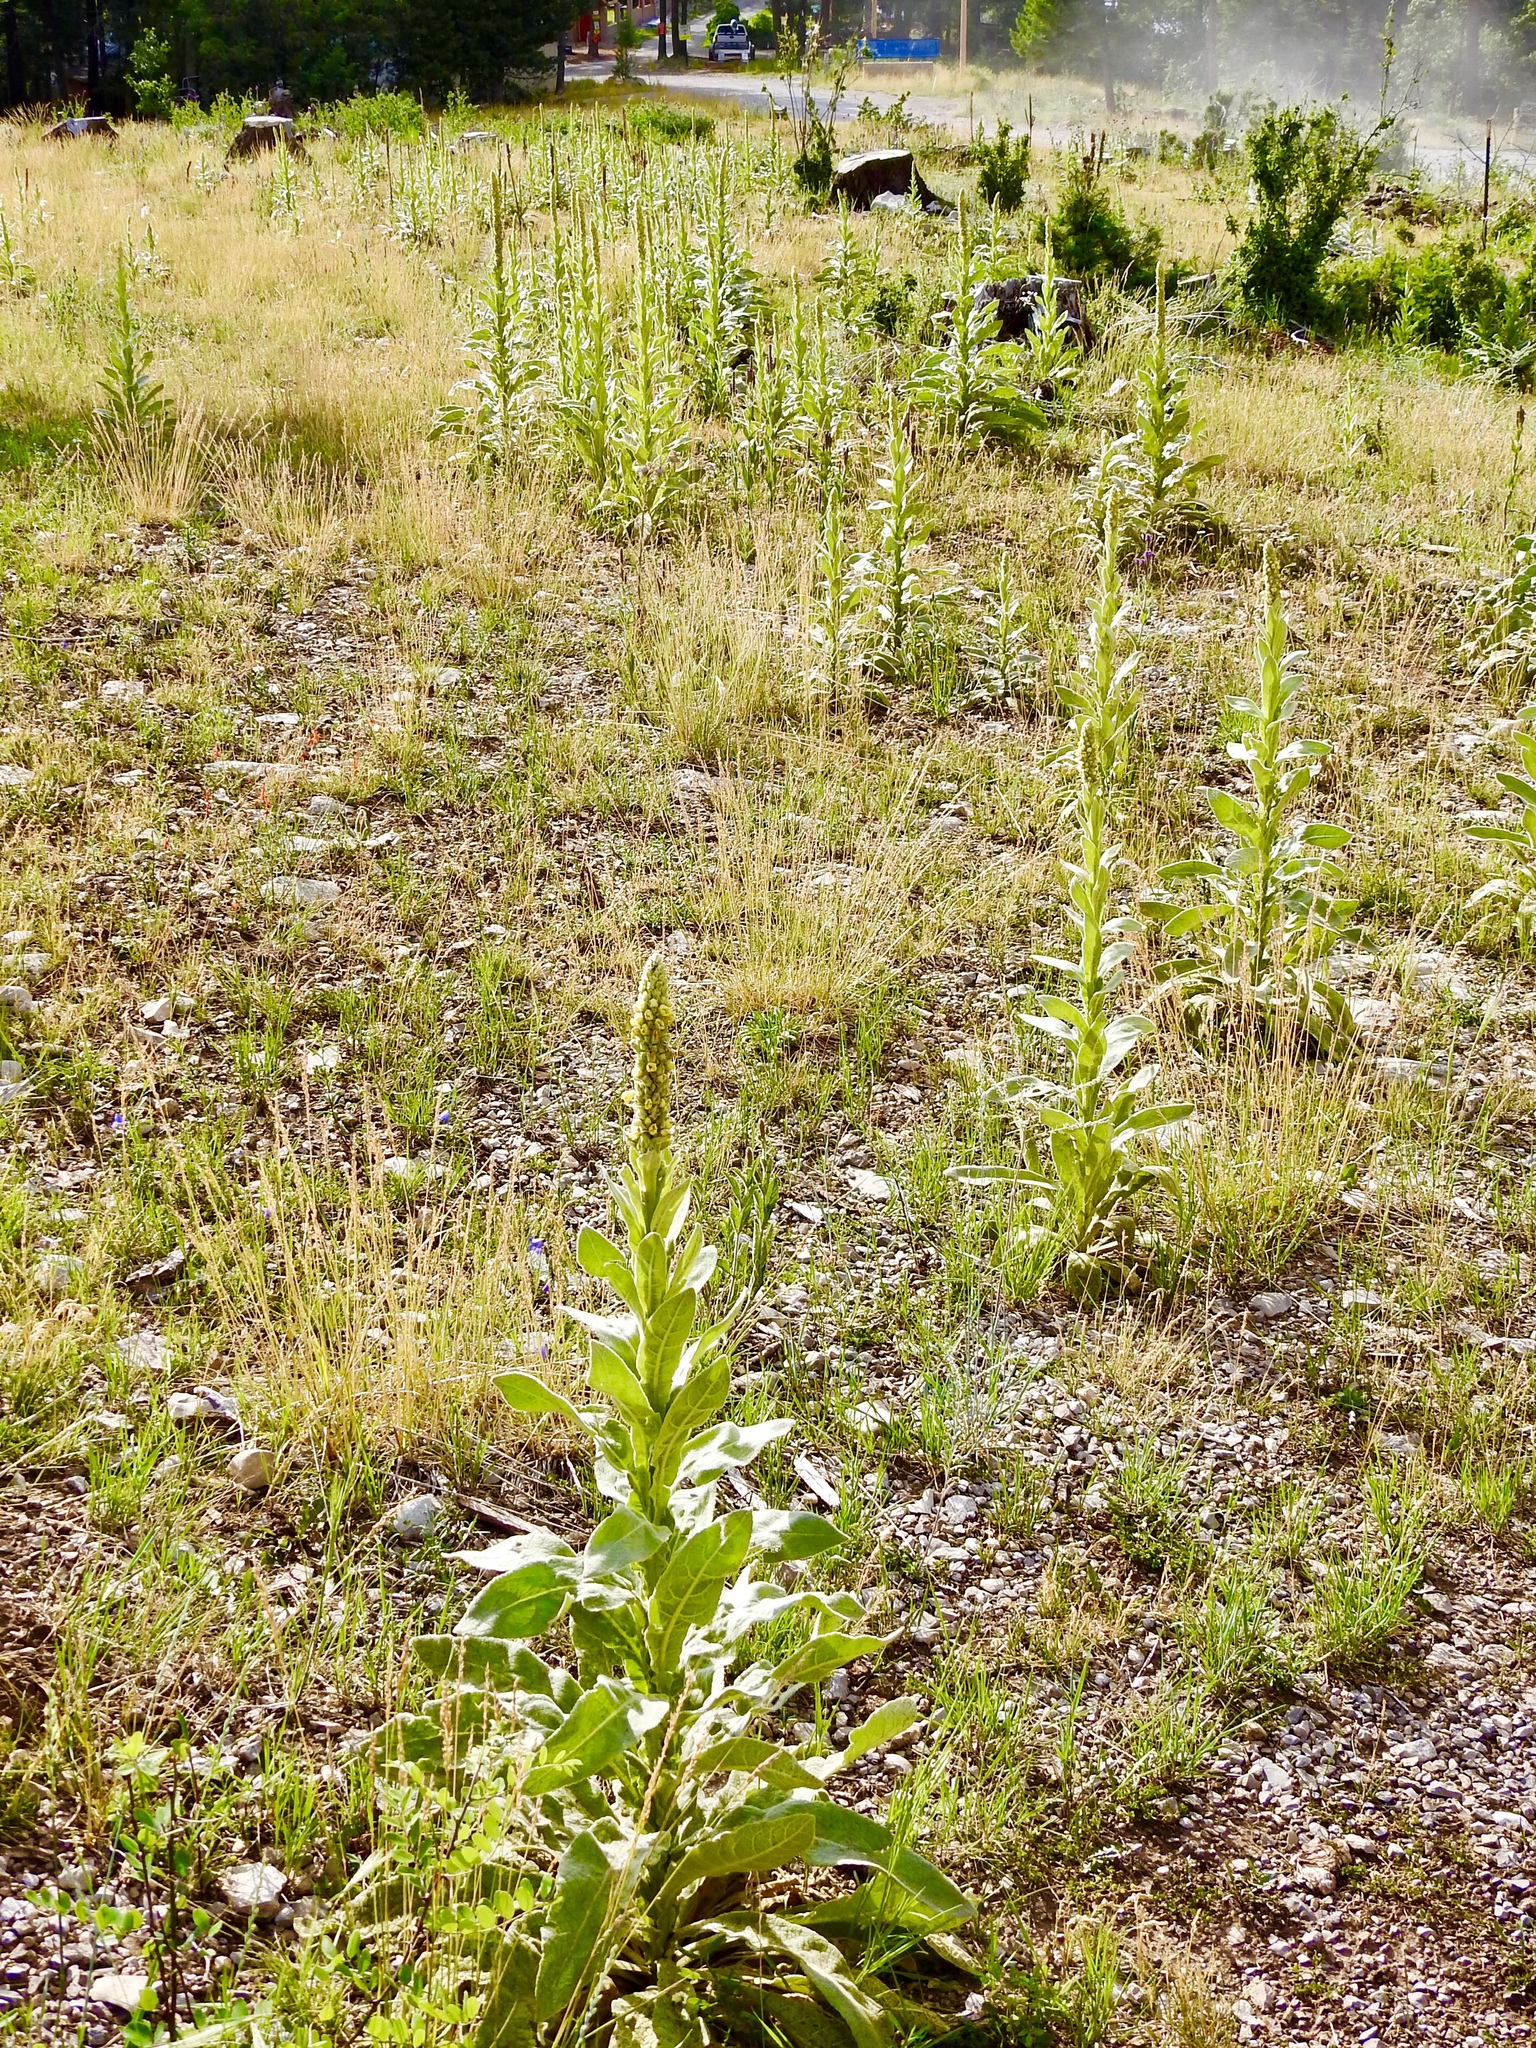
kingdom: Plantae
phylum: Tracheophyta
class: Magnoliopsida
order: Lamiales
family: Scrophulariaceae
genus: Verbascum
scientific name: Verbascum thapsus
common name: Common mullein
